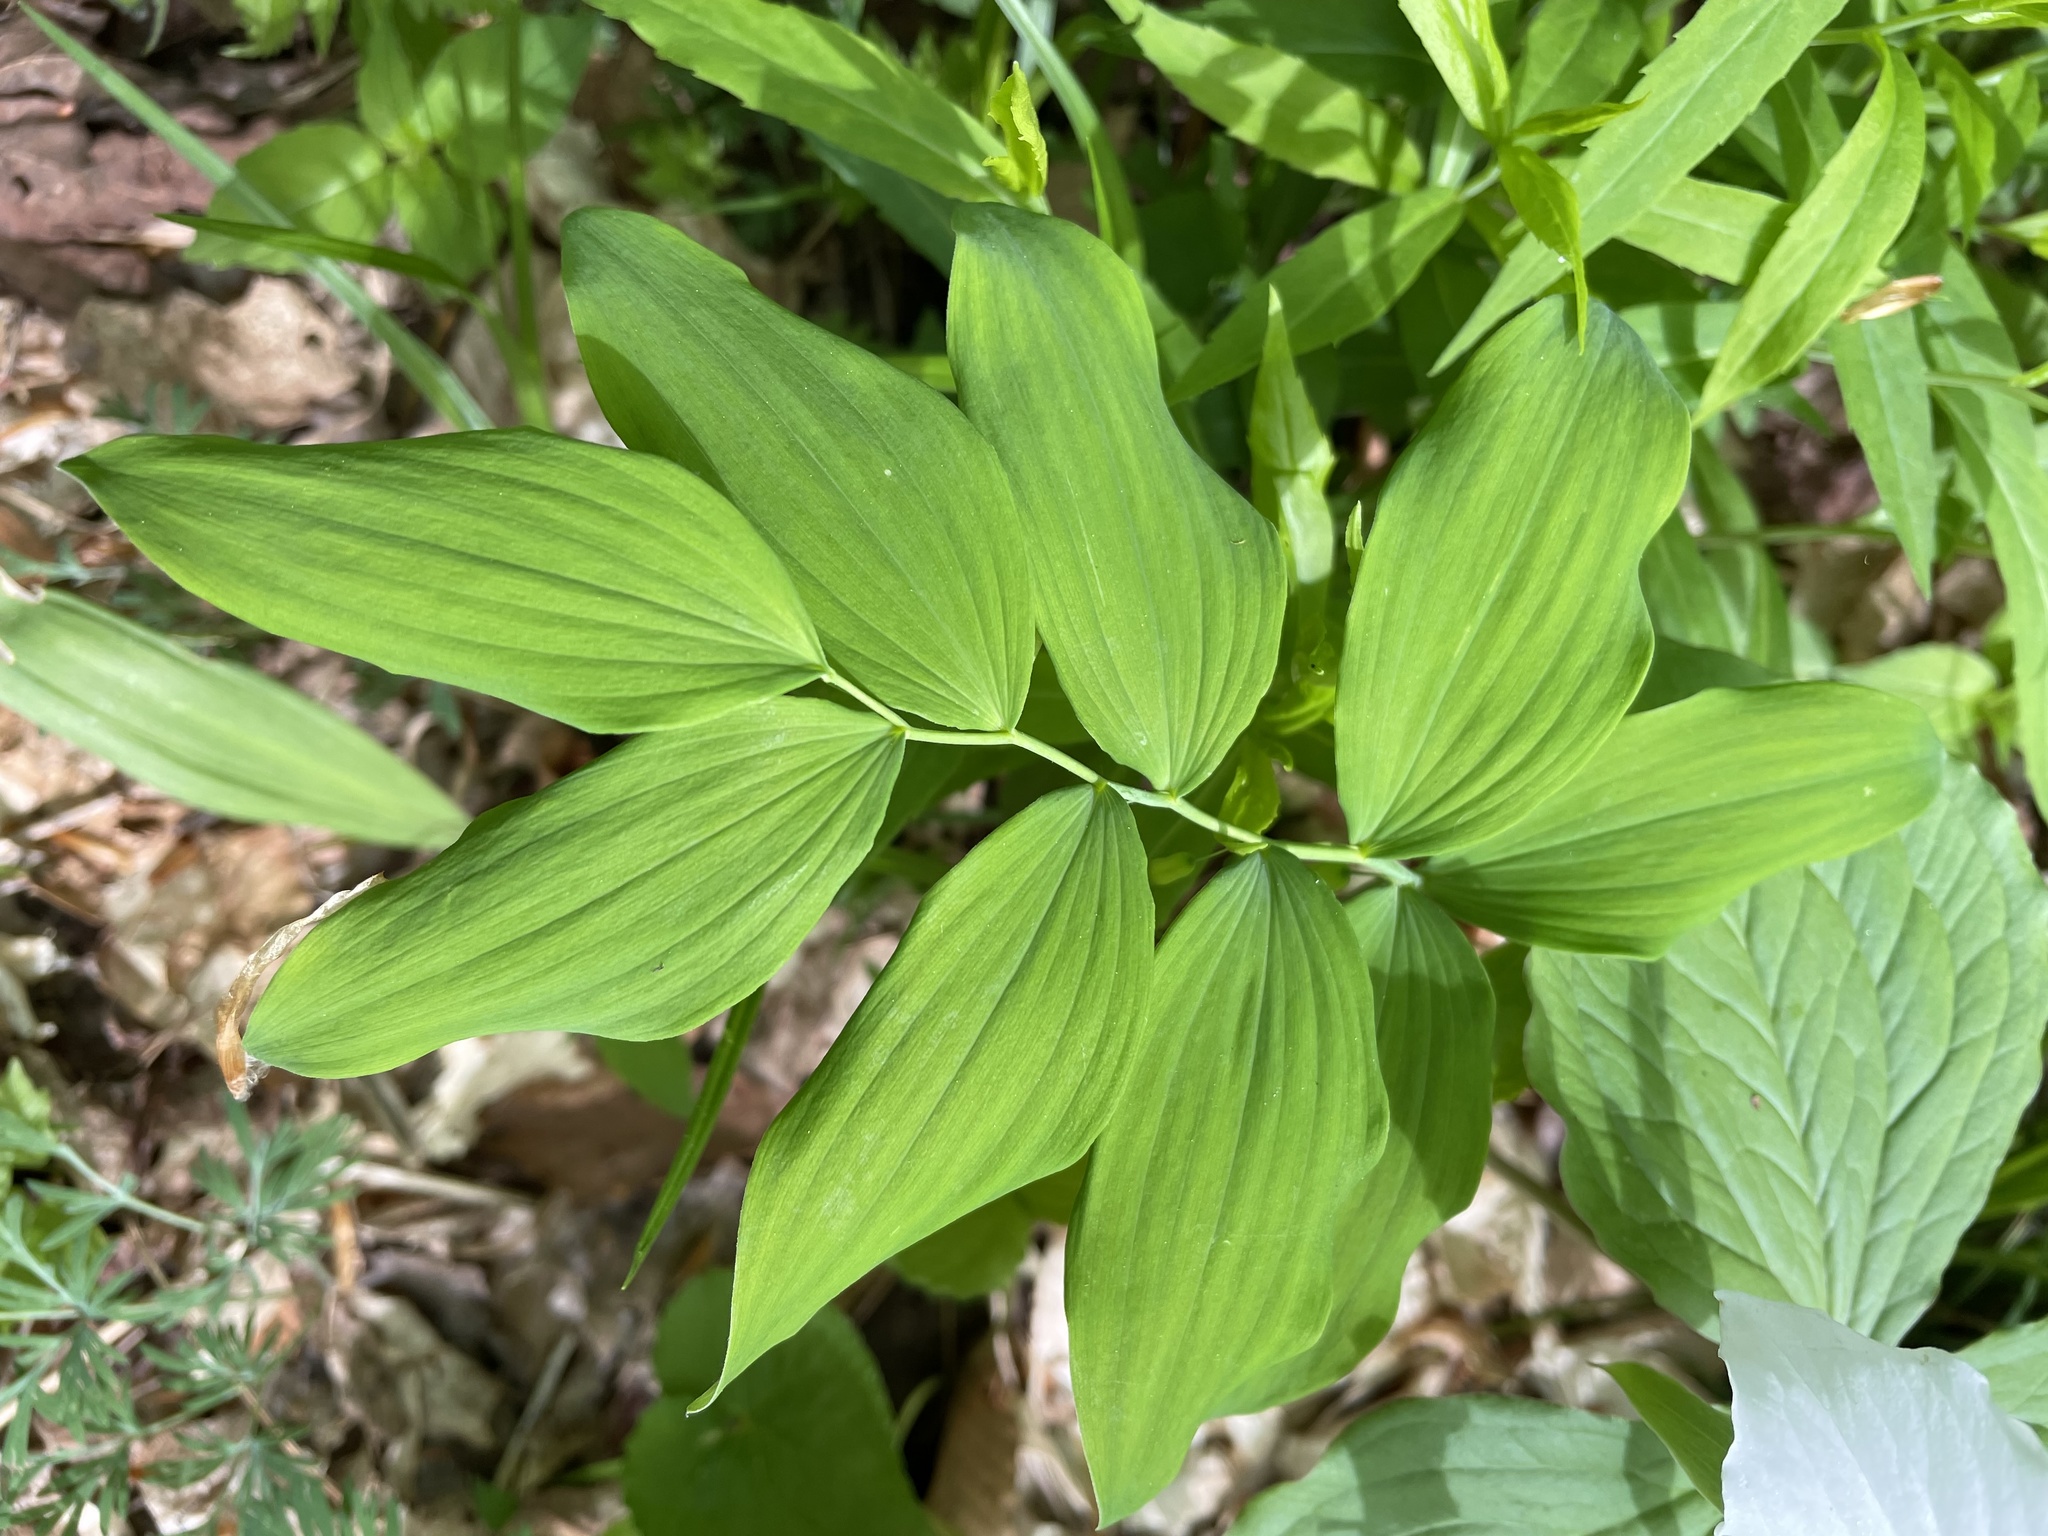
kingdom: Plantae
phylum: Tracheophyta
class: Liliopsida
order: Asparagales
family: Asparagaceae
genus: Polygonatum
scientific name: Polygonatum pubescens
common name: Downy solomon's seal
